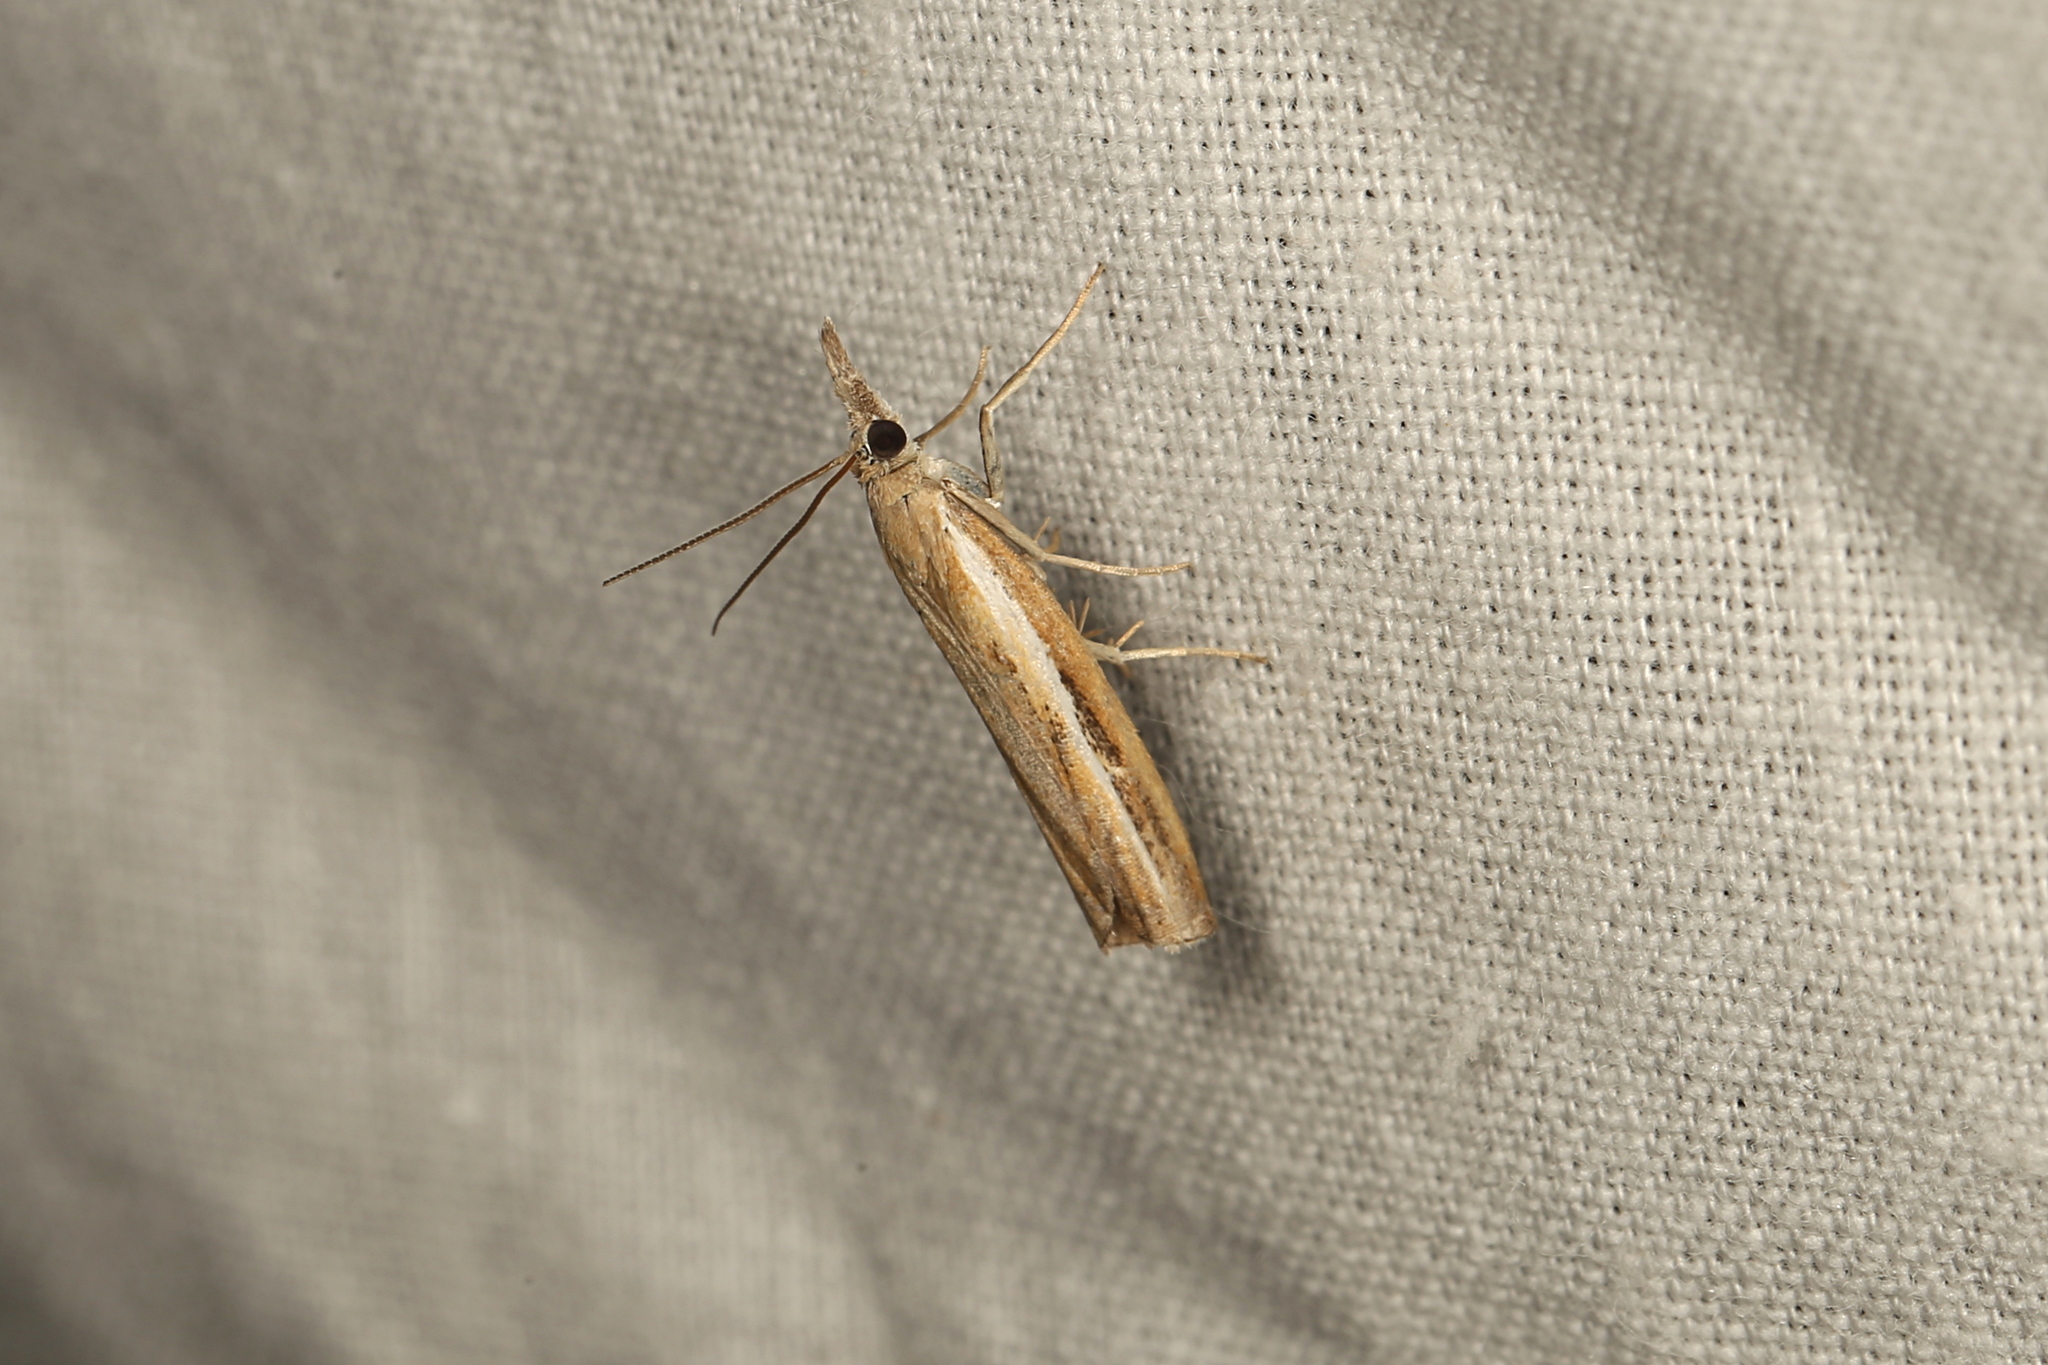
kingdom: Animalia
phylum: Arthropoda
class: Insecta
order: Lepidoptera
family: Crambidae
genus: Ptochostola
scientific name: Ptochostola microphaeellus
